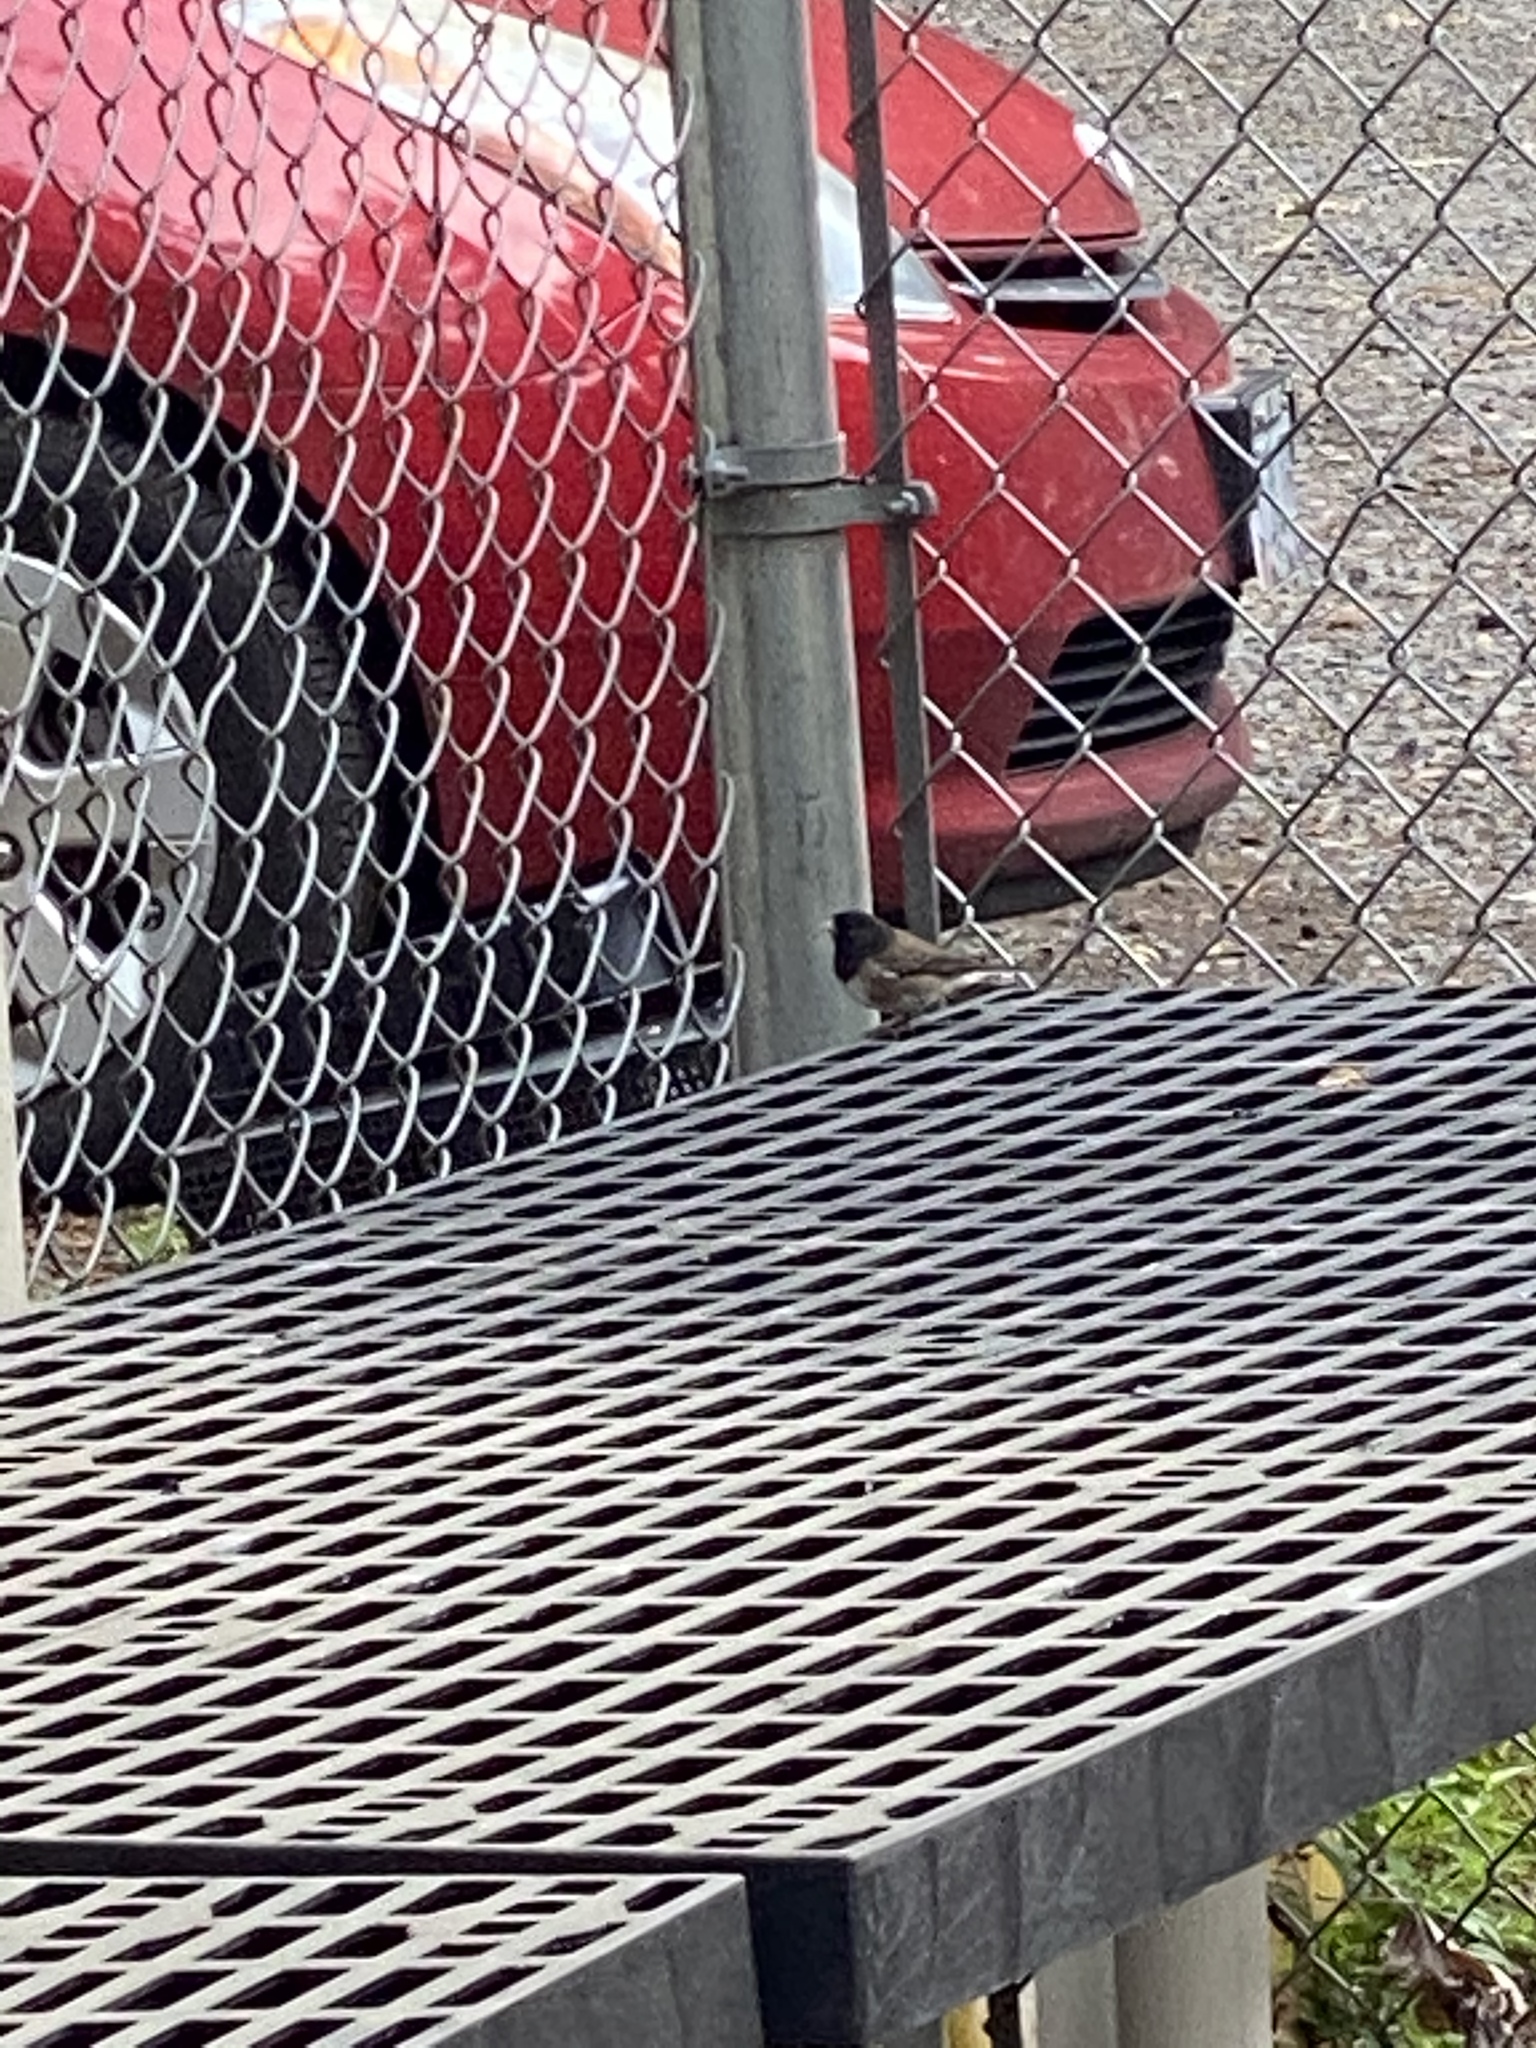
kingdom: Animalia
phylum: Chordata
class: Aves
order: Passeriformes
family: Passerellidae
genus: Junco
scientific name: Junco hyemalis
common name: Dark-eyed junco
